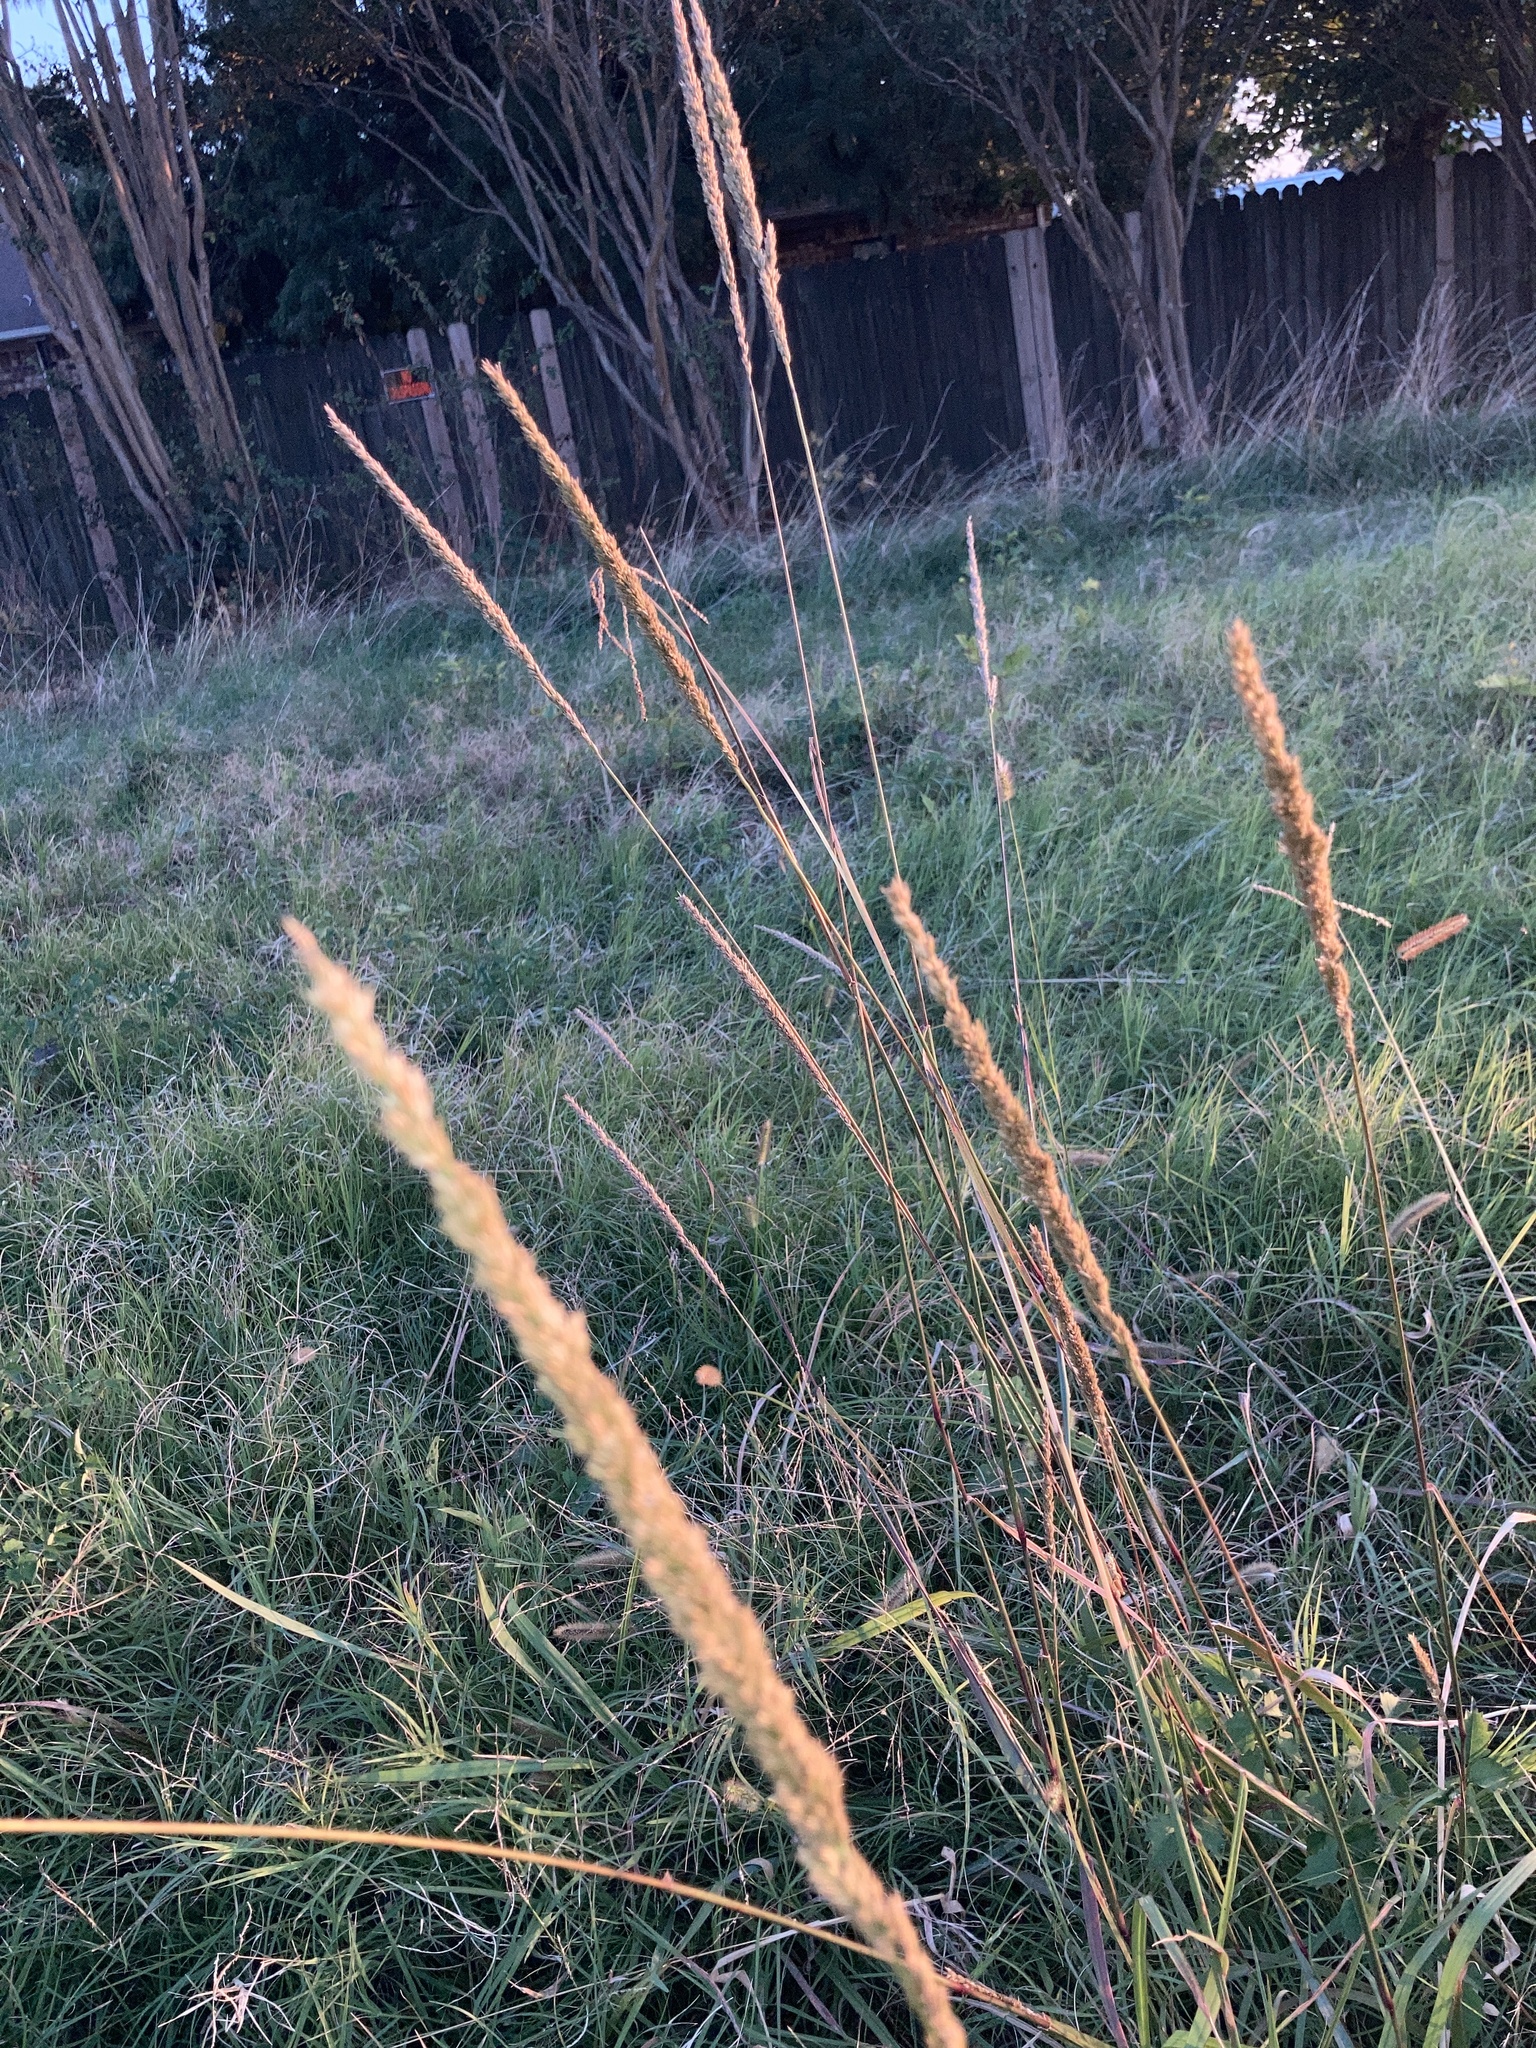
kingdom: Plantae
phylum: Tracheophyta
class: Liliopsida
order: Poales
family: Poaceae
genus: Tridens
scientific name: Tridens strictus
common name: Long-spike tridens
